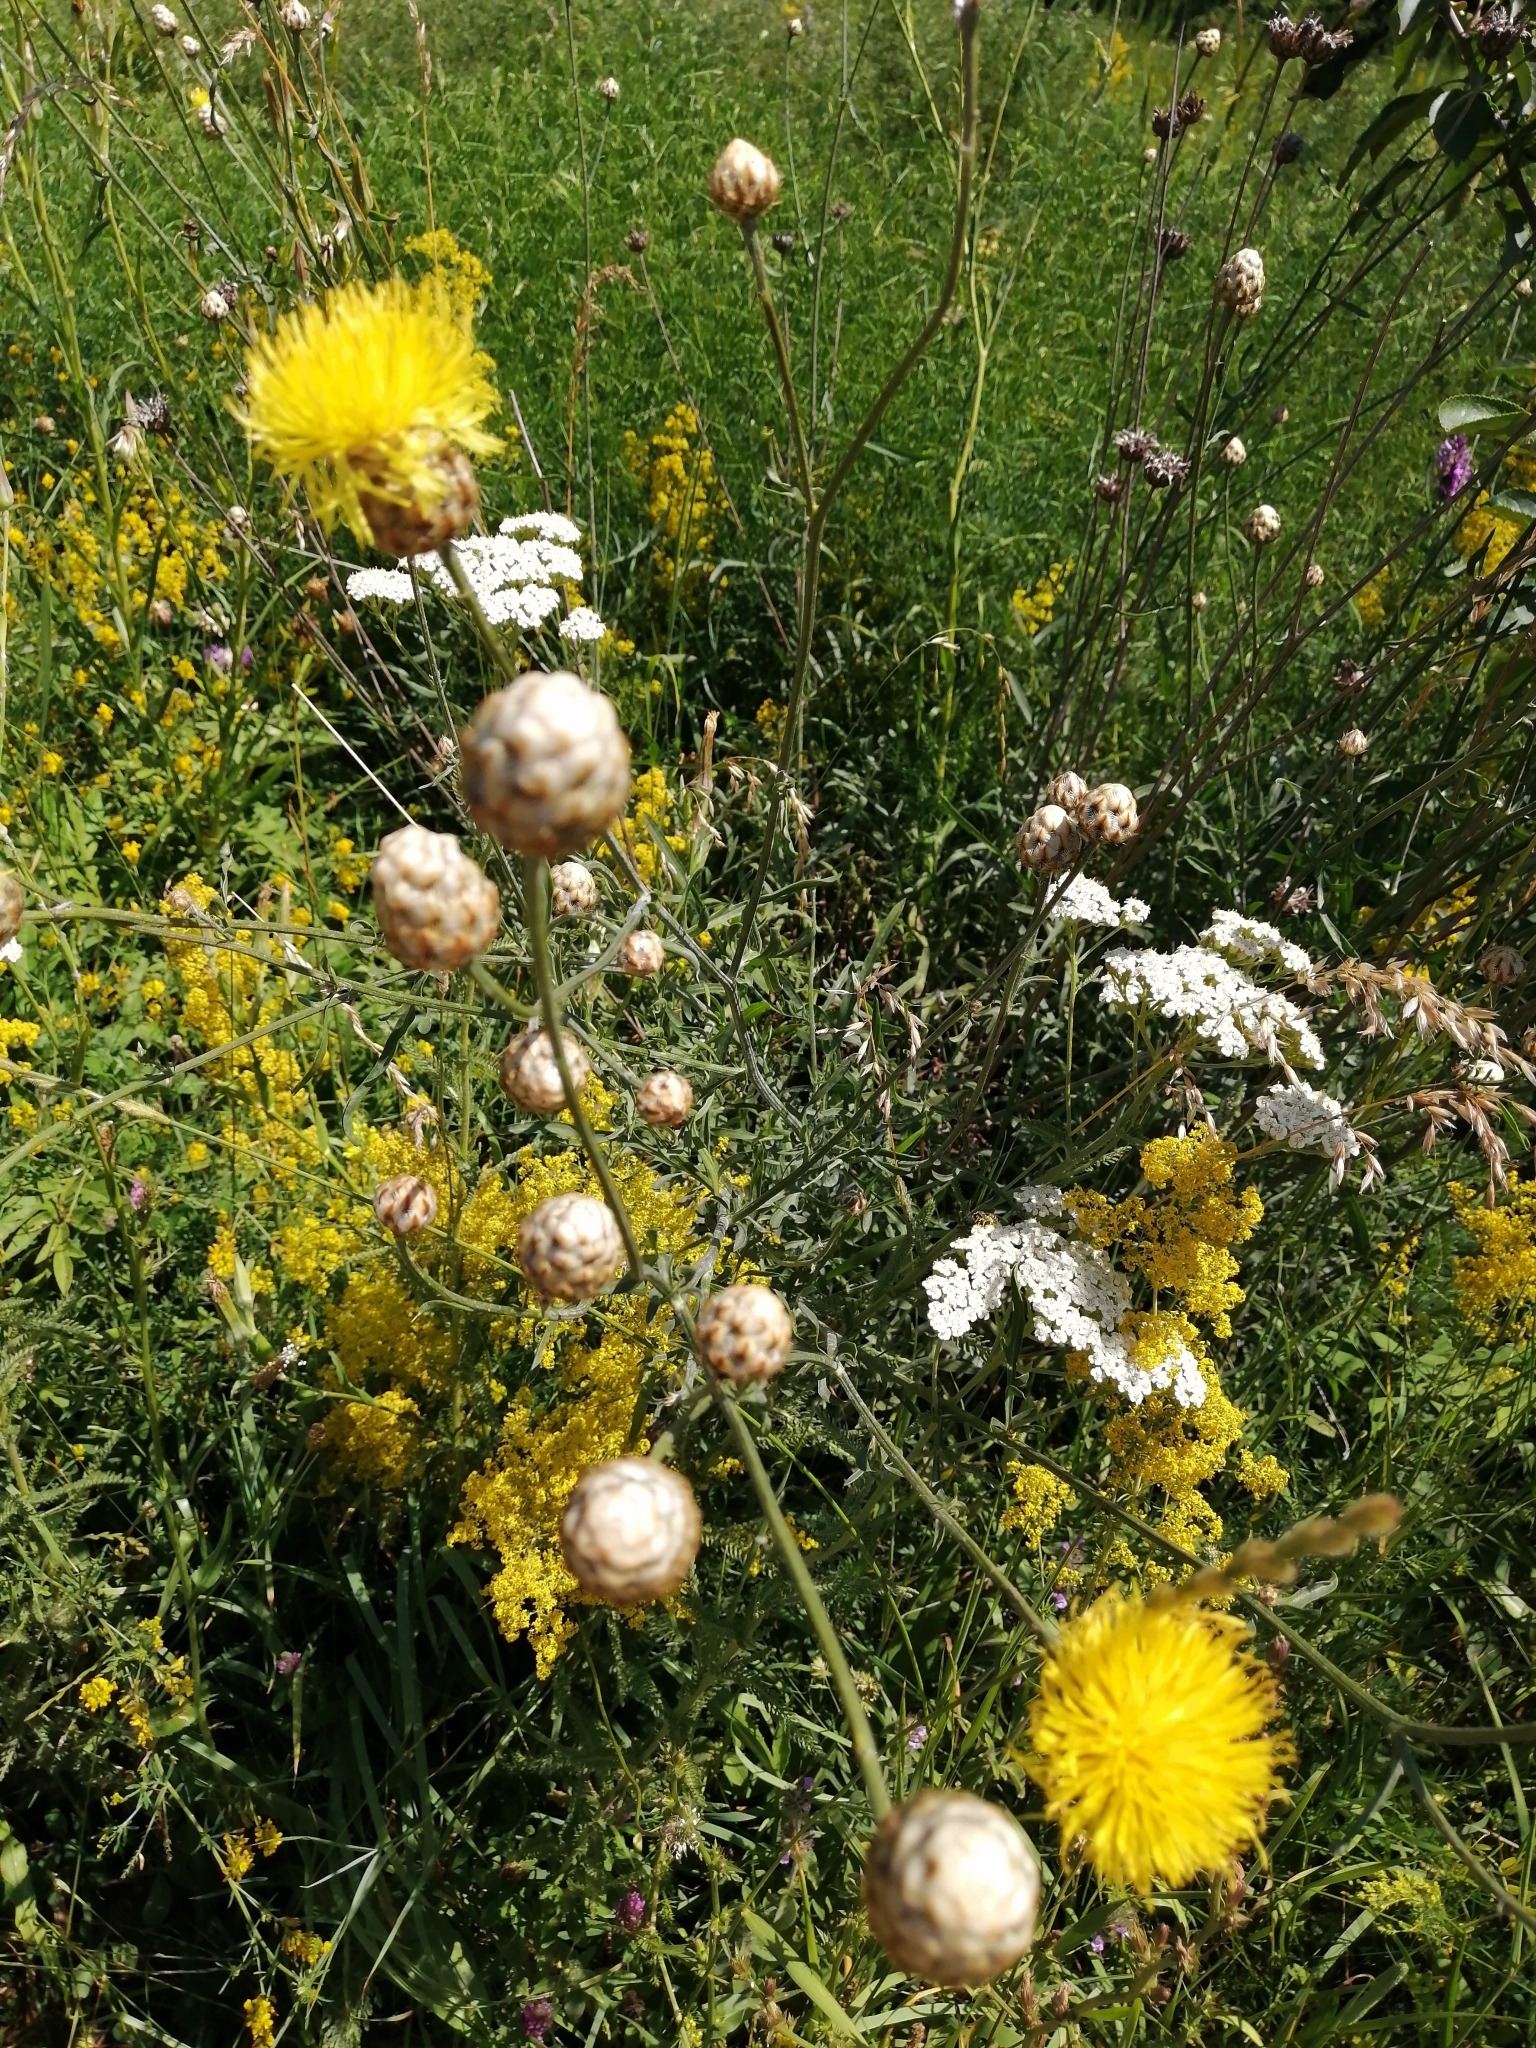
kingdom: Plantae
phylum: Tracheophyta
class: Magnoliopsida
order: Asterales
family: Asteraceae
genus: Centaurea
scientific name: Centaurea orientalis
